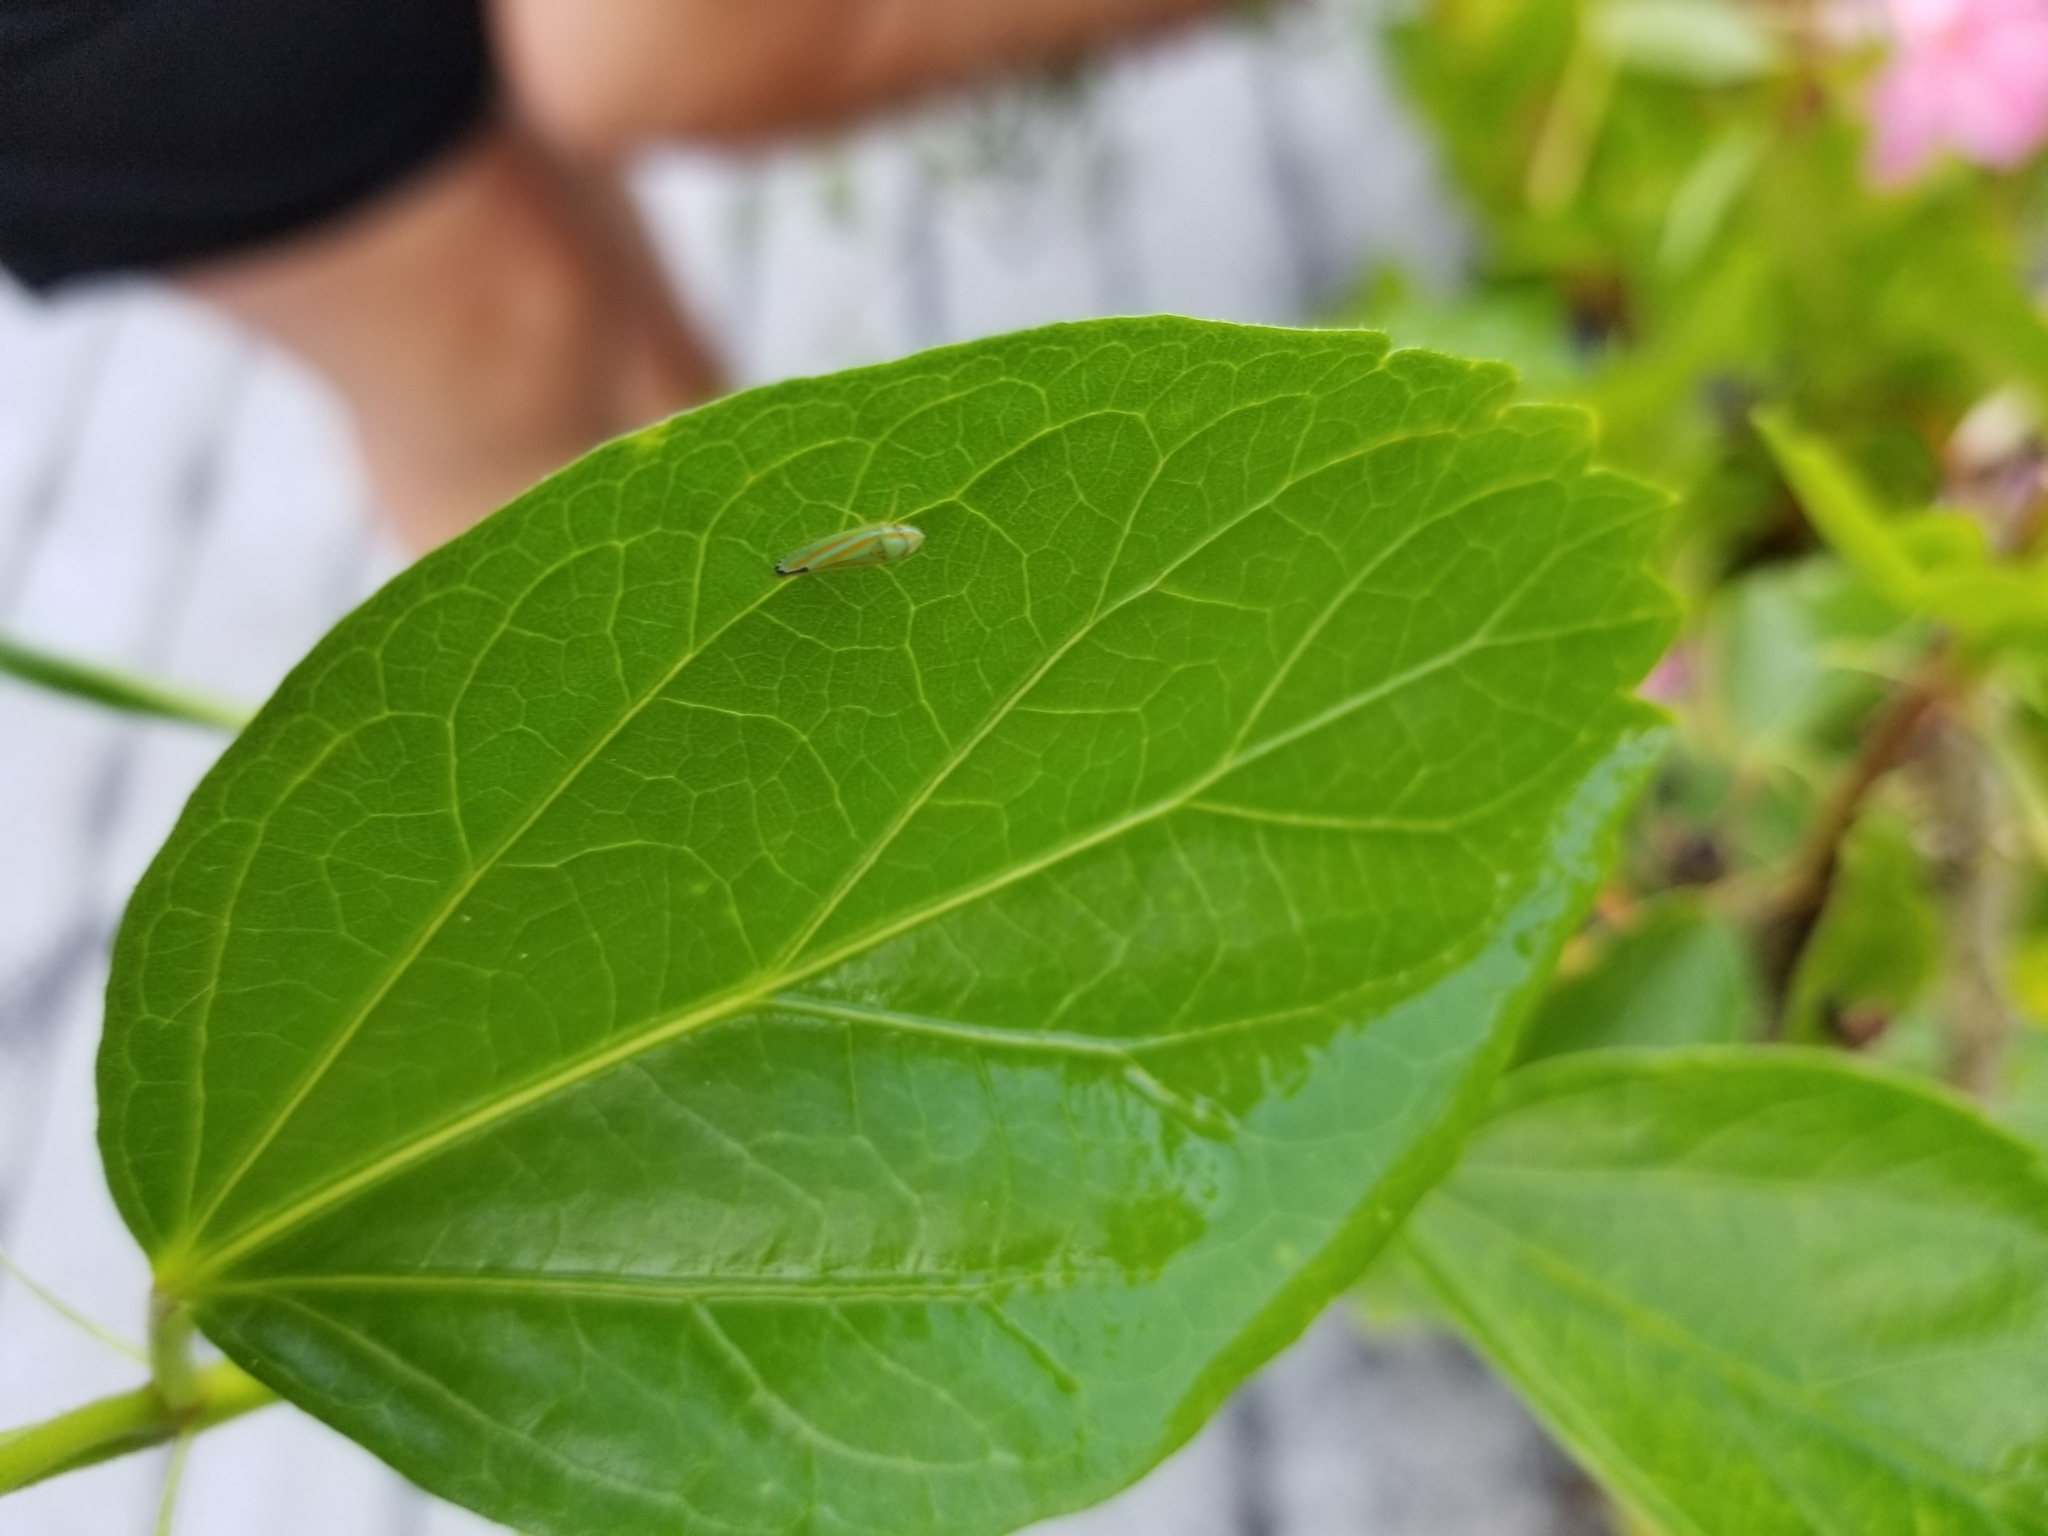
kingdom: Animalia
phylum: Arthropoda
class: Insecta
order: Hemiptera
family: Cicadellidae
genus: Graphocephala
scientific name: Graphocephala versuta
